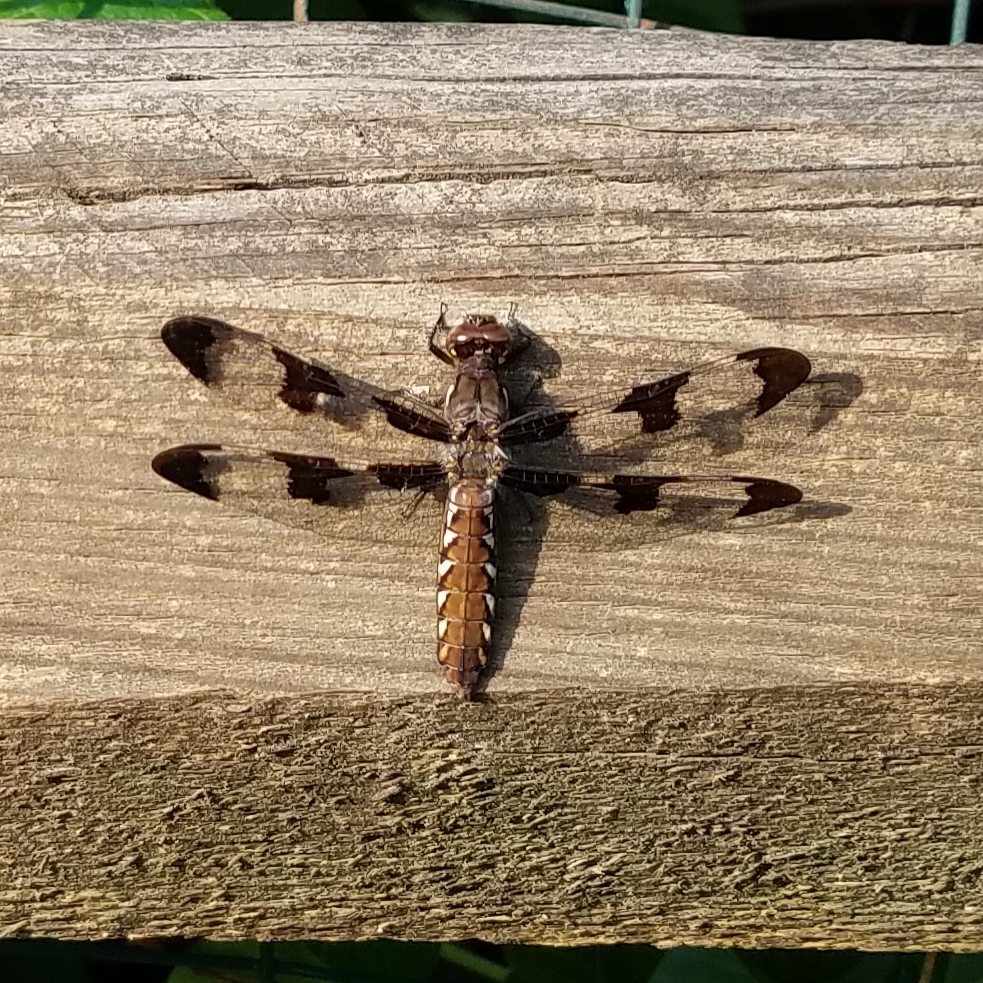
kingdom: Animalia
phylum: Arthropoda
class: Insecta
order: Odonata
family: Libellulidae
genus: Plathemis
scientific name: Plathemis lydia
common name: Common whitetail
